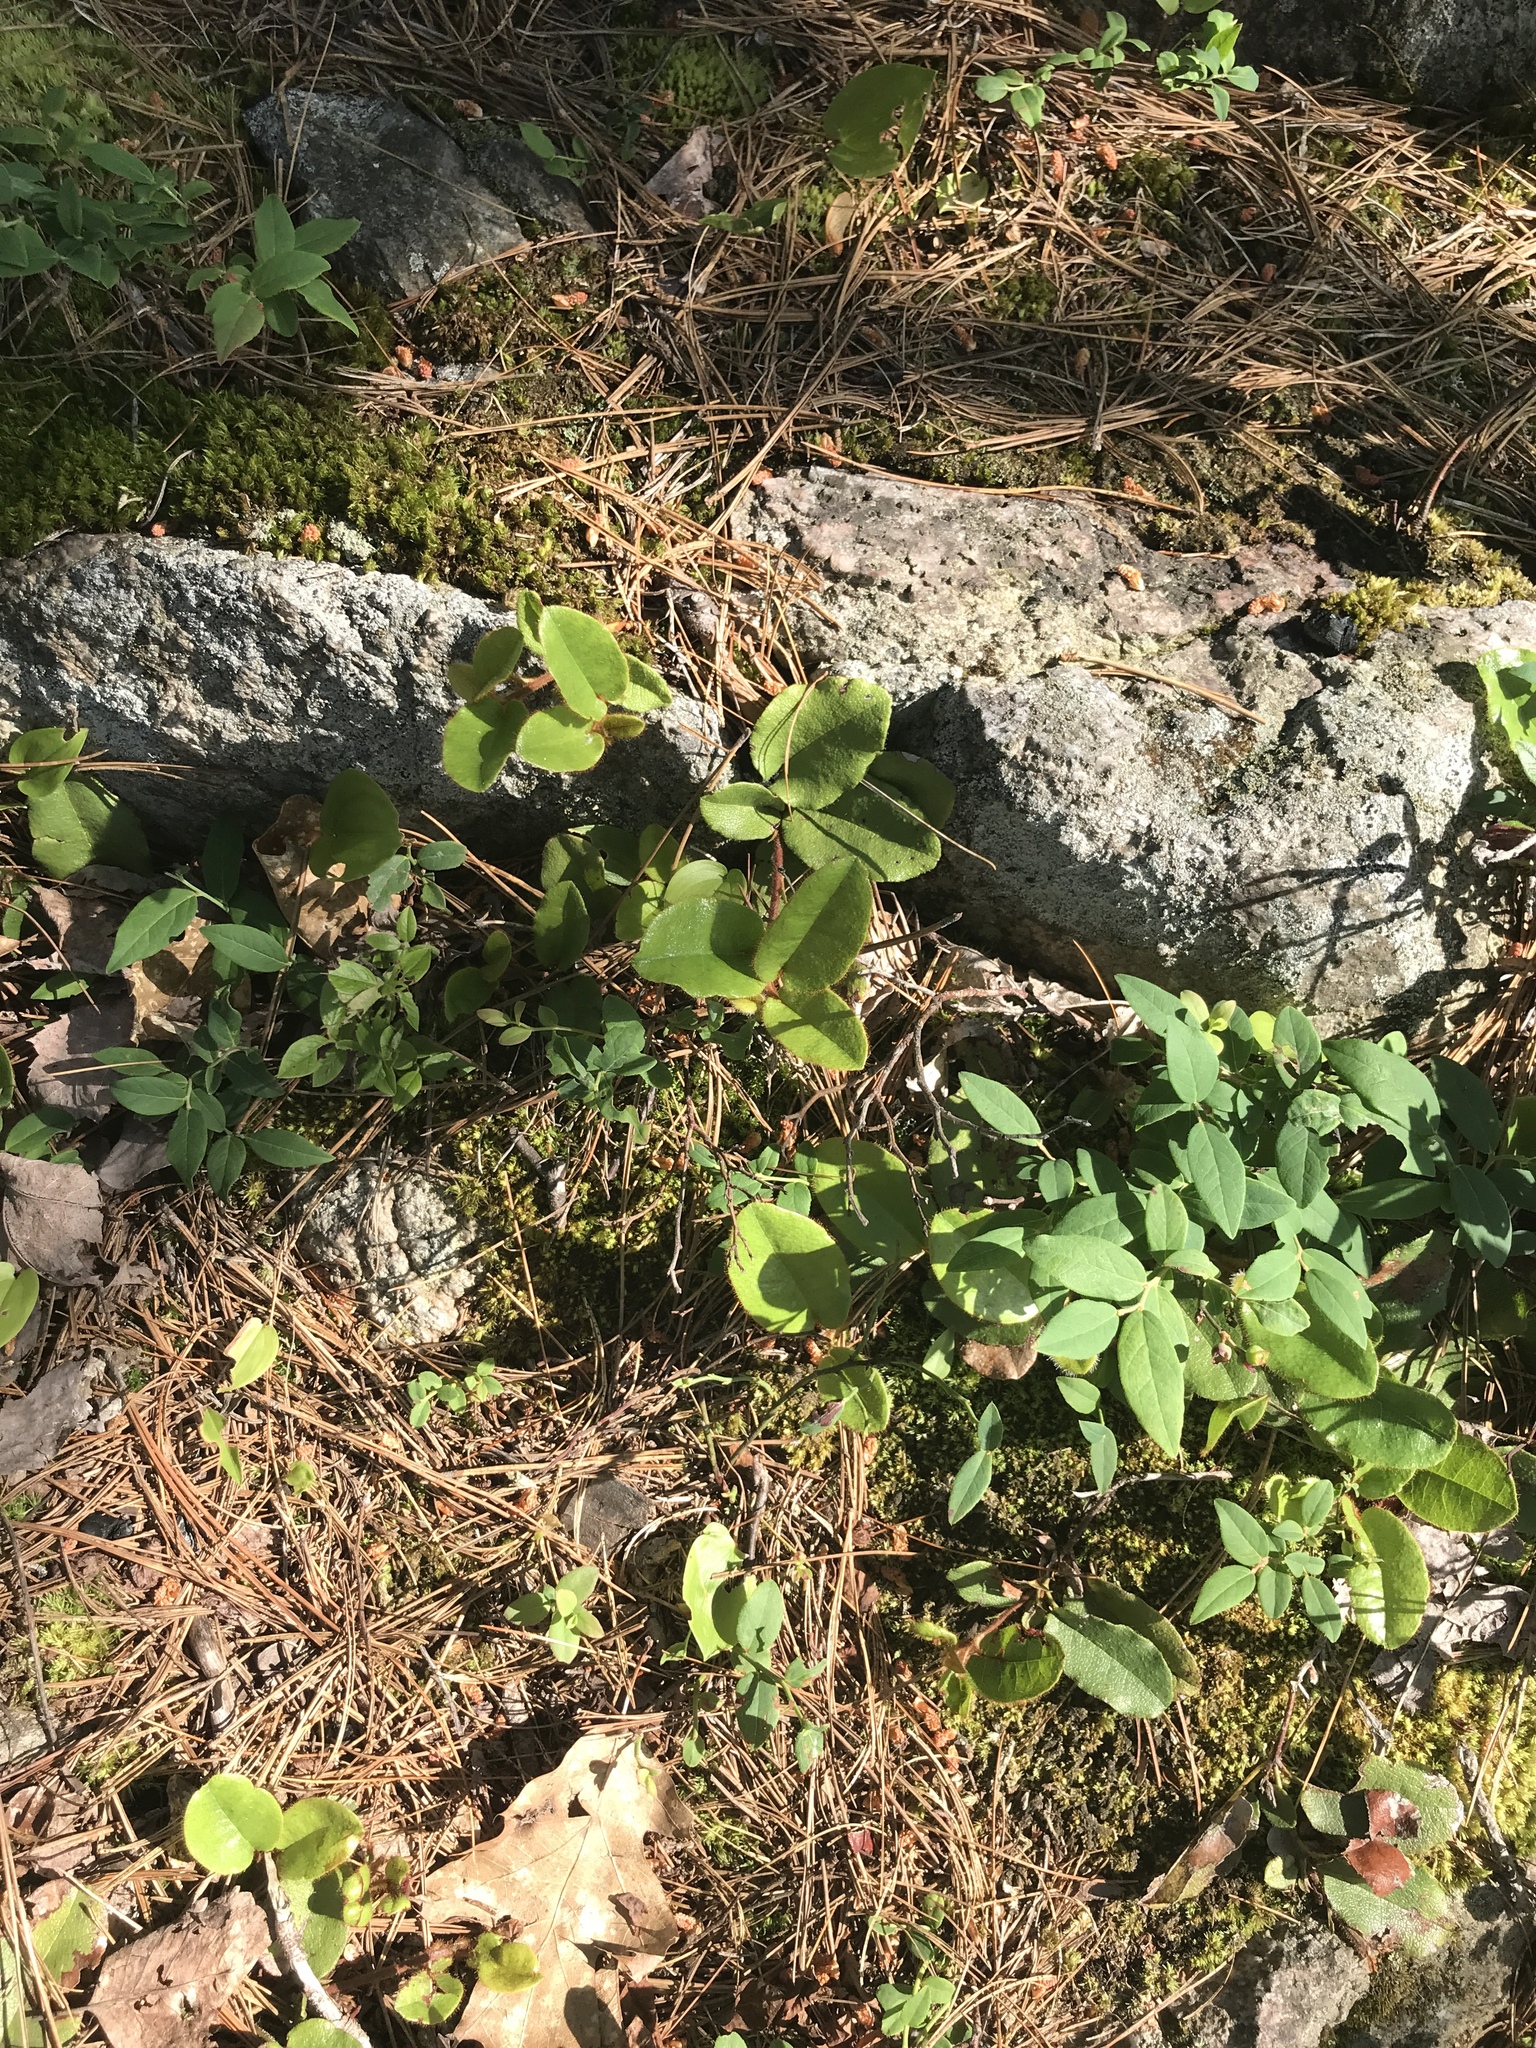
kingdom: Plantae
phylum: Tracheophyta
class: Magnoliopsida
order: Ericales
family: Ericaceae
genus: Epigaea
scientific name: Epigaea repens
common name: Gravelroot
